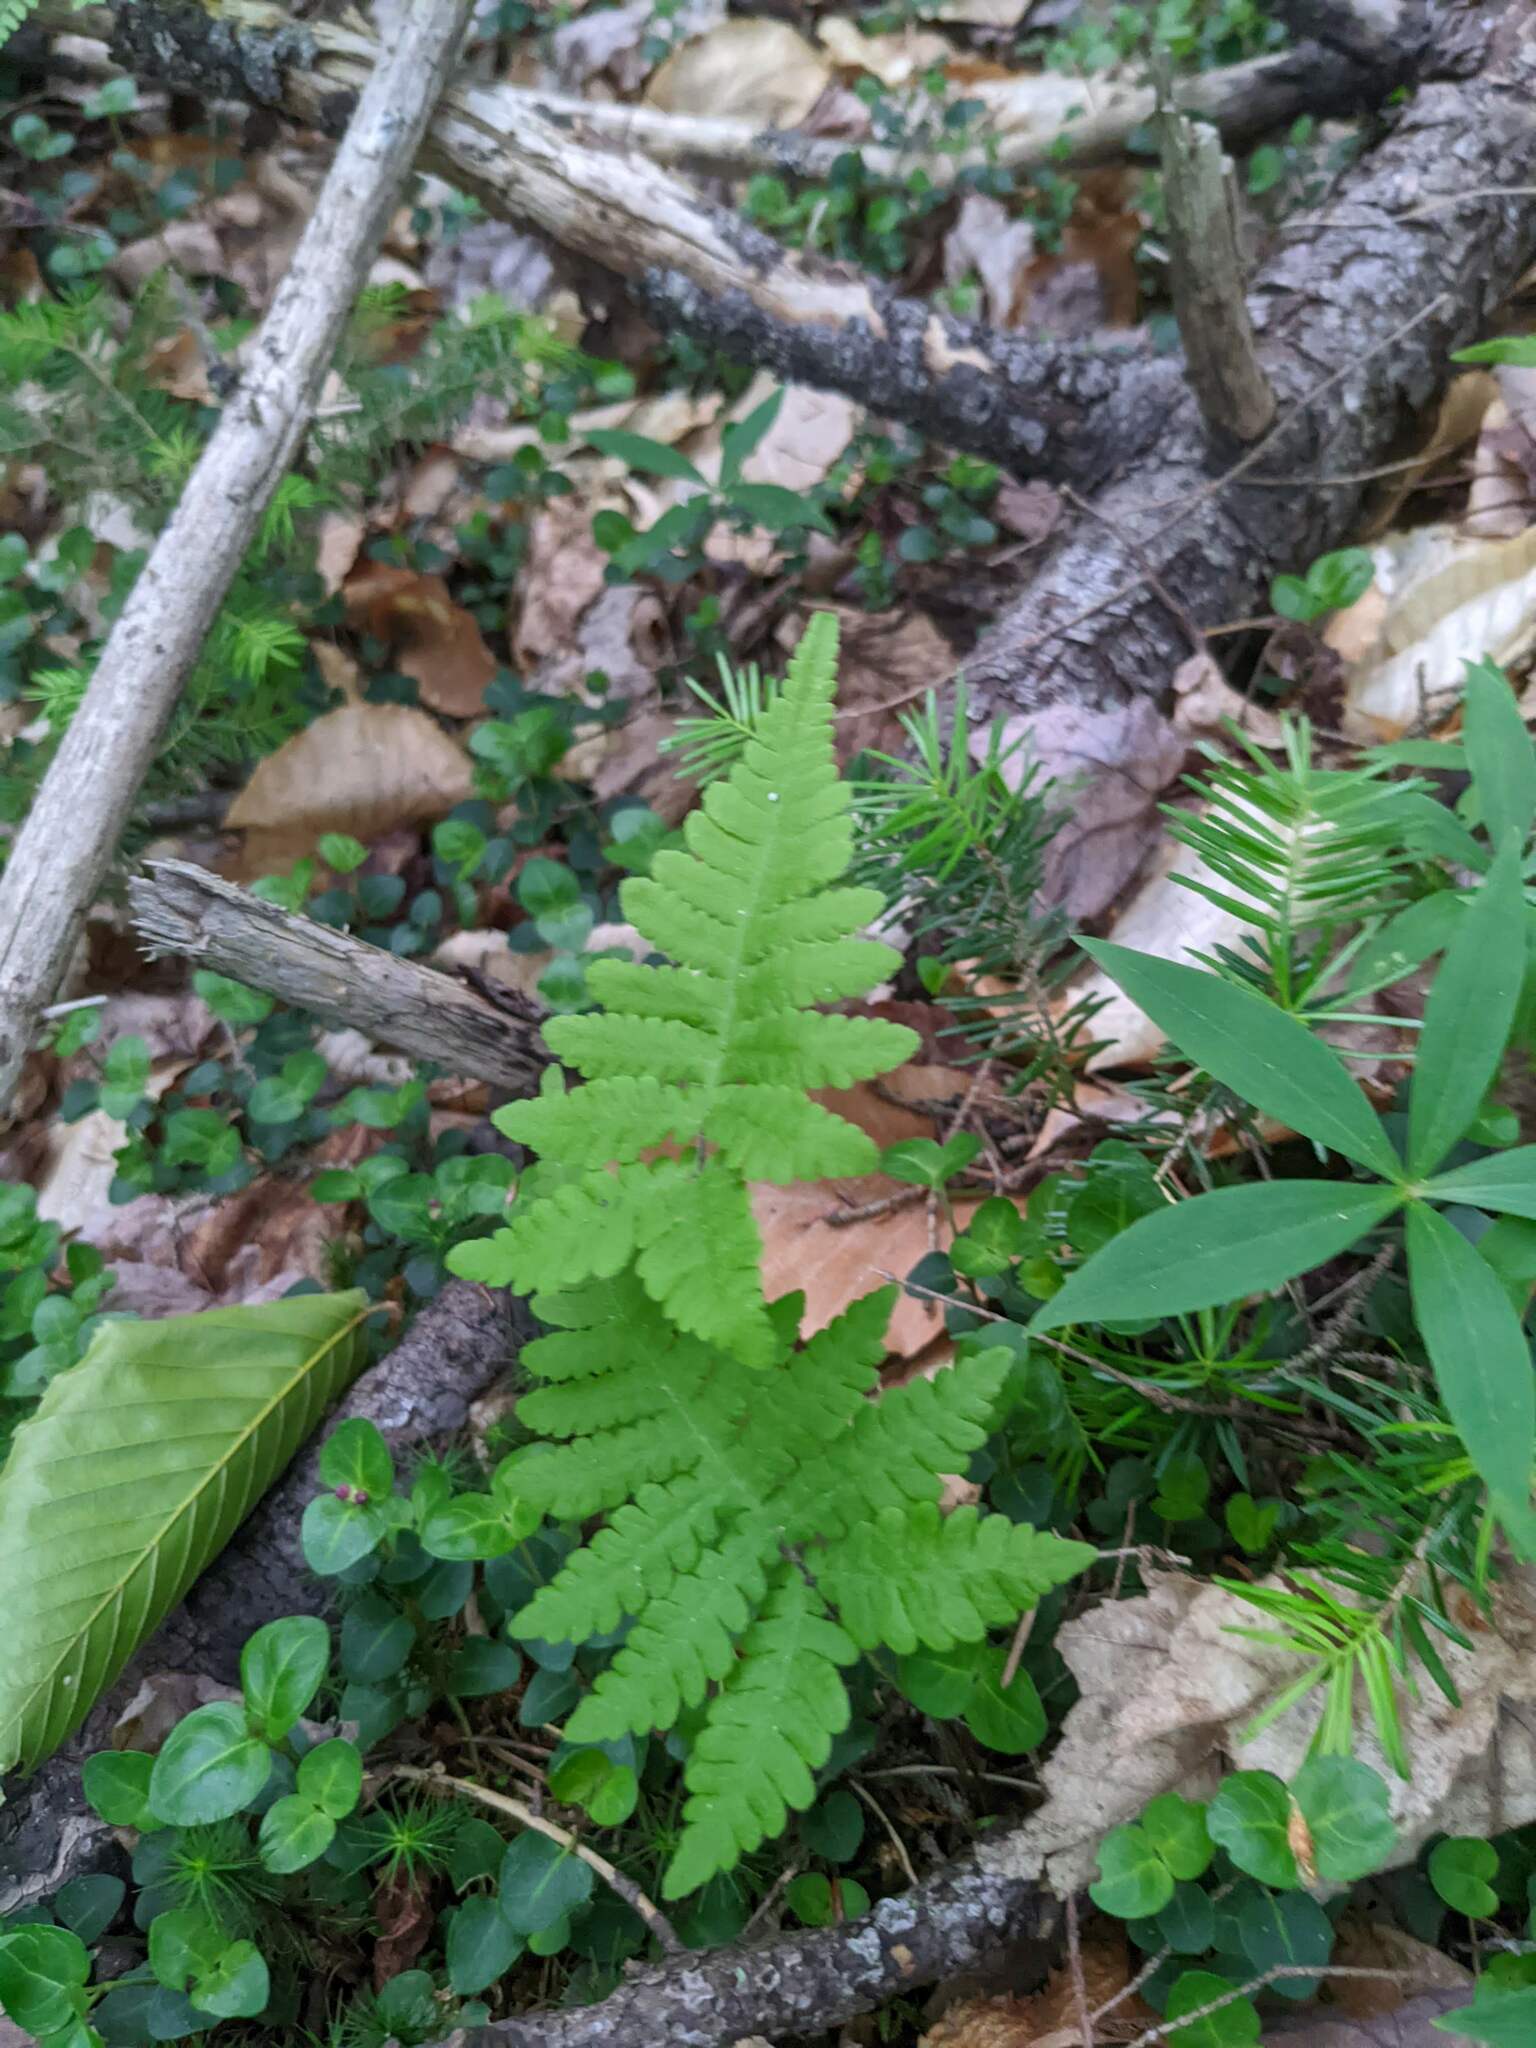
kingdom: Plantae
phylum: Tracheophyta
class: Polypodiopsida
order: Polypodiales
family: Thelypteridaceae
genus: Phegopteris
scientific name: Phegopteris connectilis
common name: Beech fern
